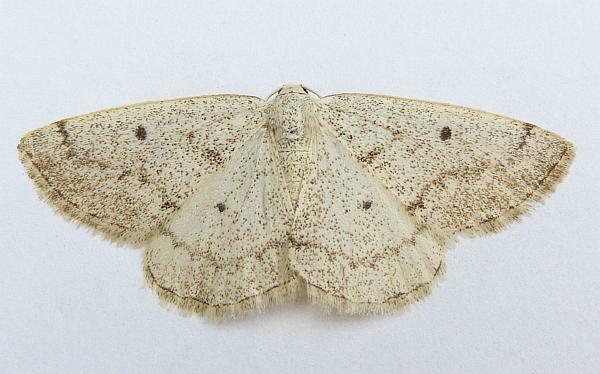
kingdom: Animalia
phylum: Arthropoda
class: Insecta
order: Lepidoptera
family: Geometridae
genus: Lomographa
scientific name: Lomographa glomeraria
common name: Gray spring moth
